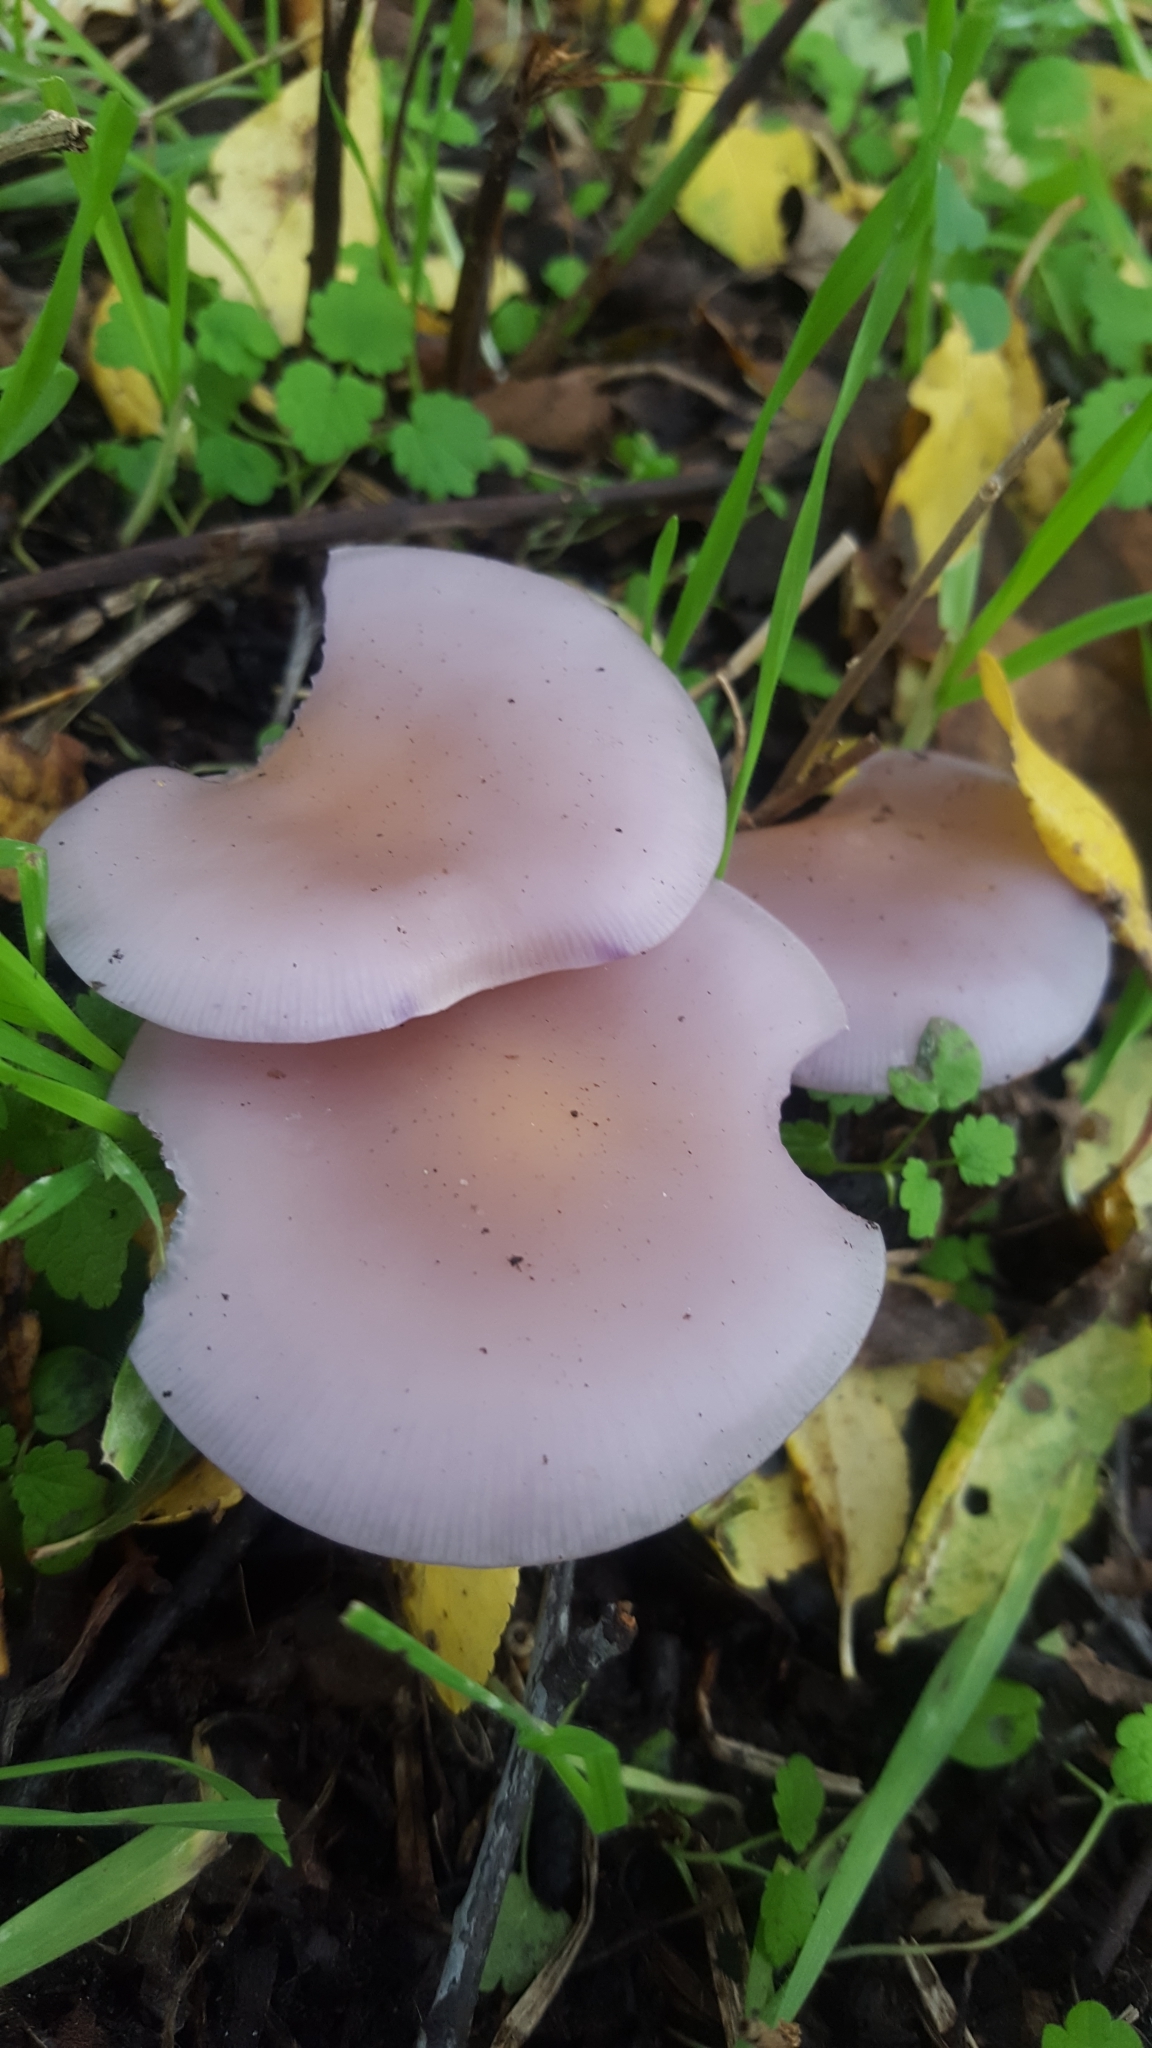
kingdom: Fungi
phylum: Basidiomycota
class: Agaricomycetes
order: Agaricales
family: Tricholomataceae
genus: Collybia
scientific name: Collybia
